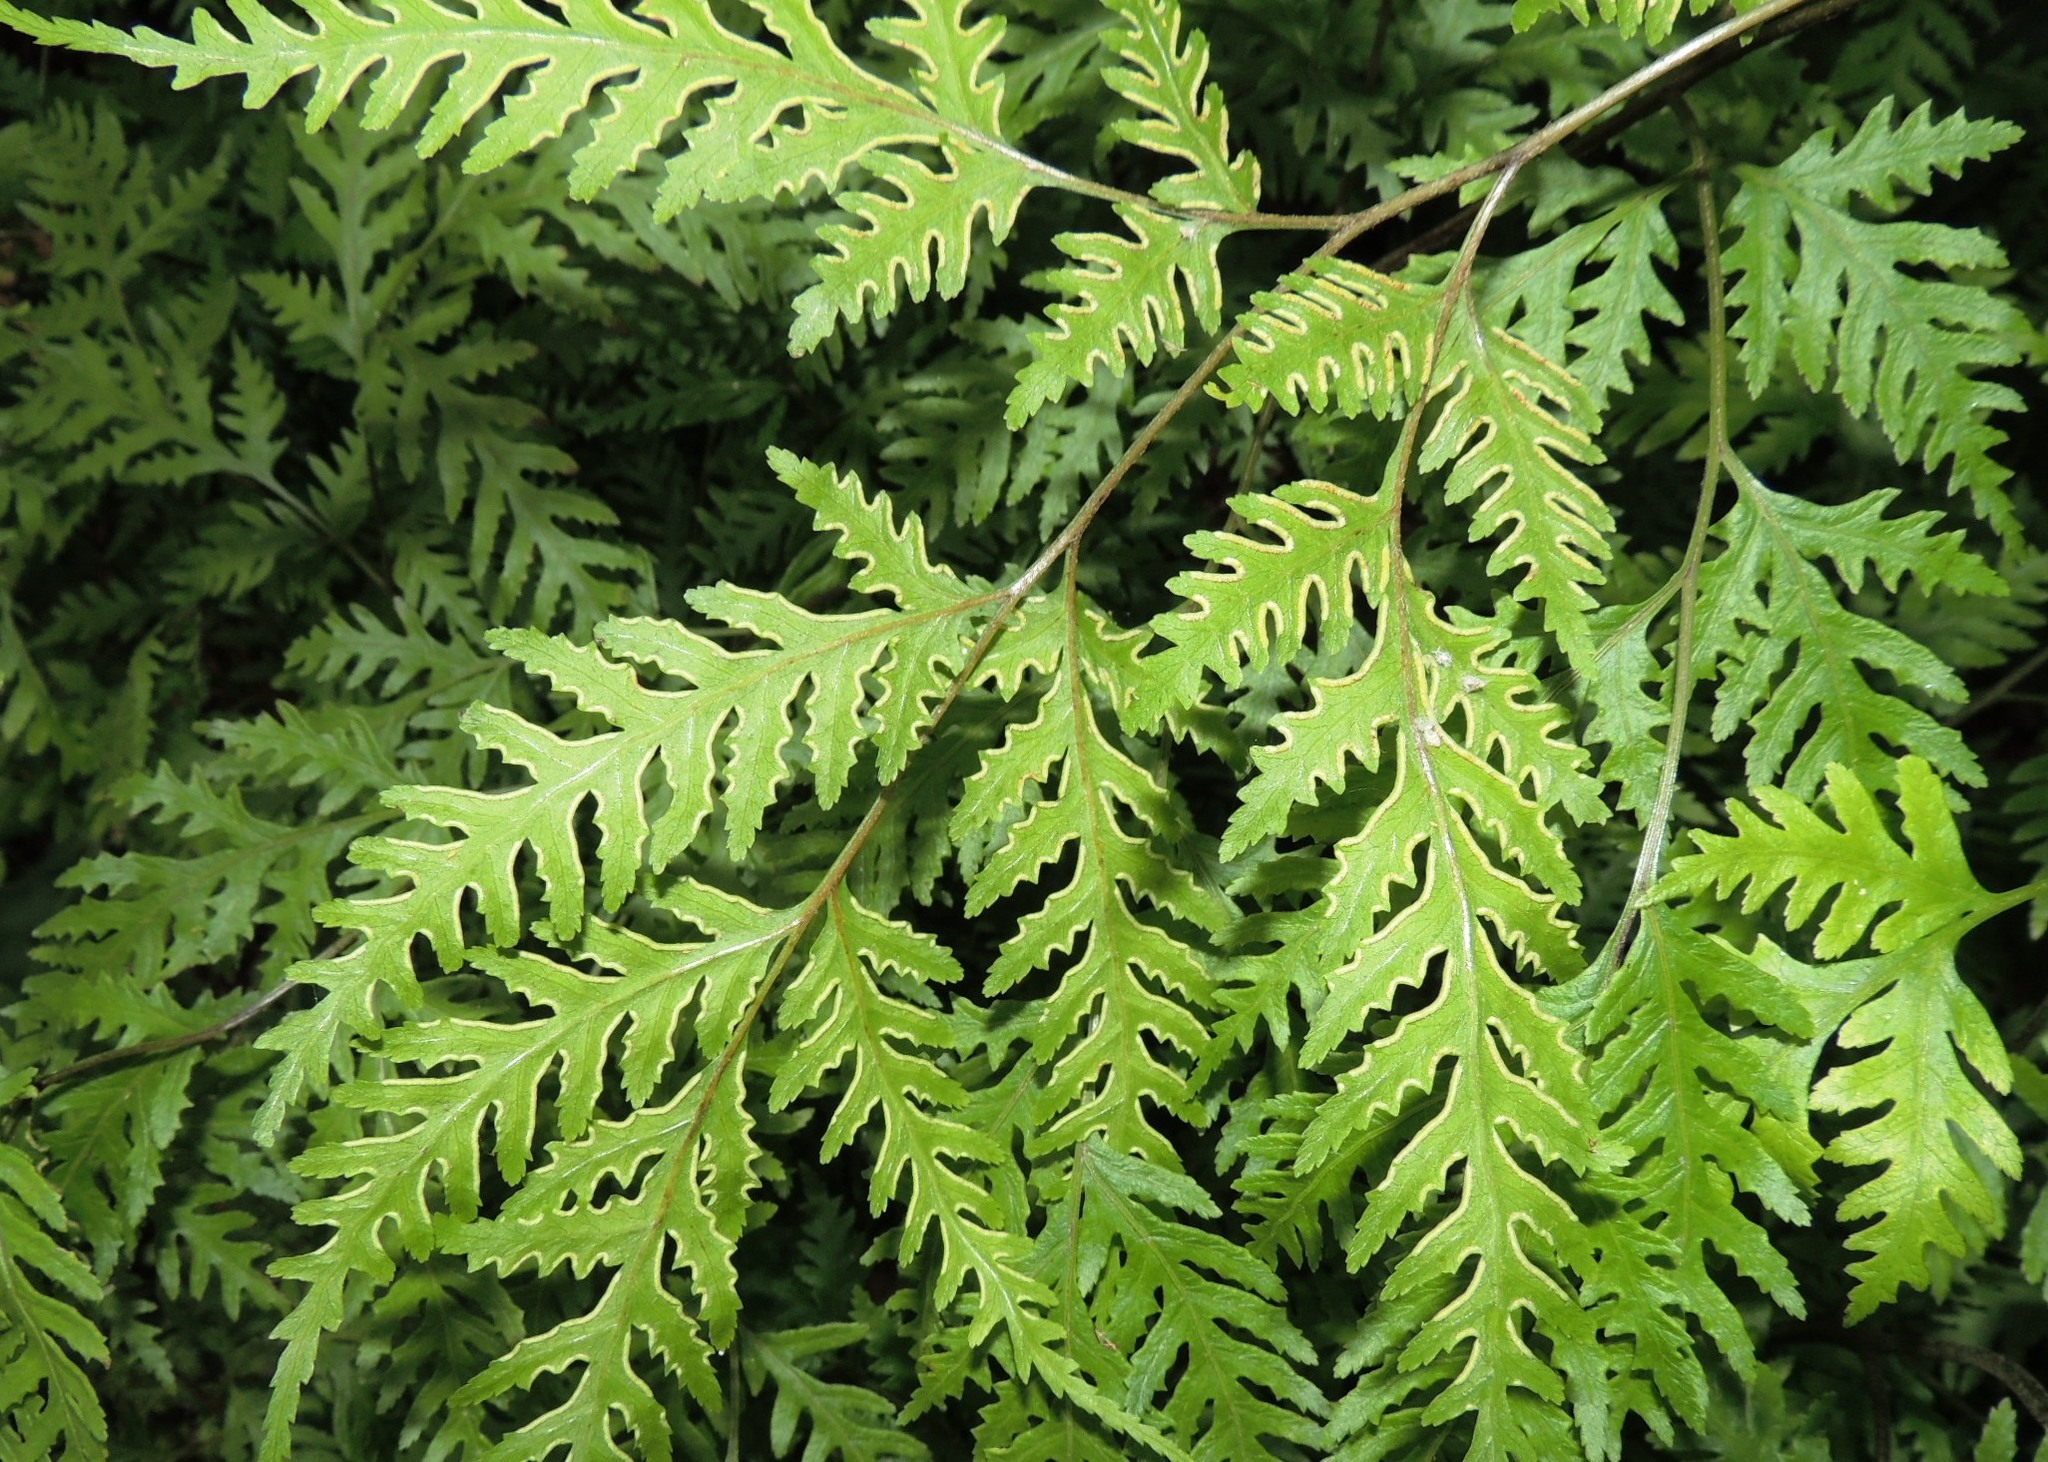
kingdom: Plantae
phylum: Tracheophyta
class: Polypodiopsida
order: Polypodiales
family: Pteridaceae
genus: Pteris
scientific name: Pteris macilenta
